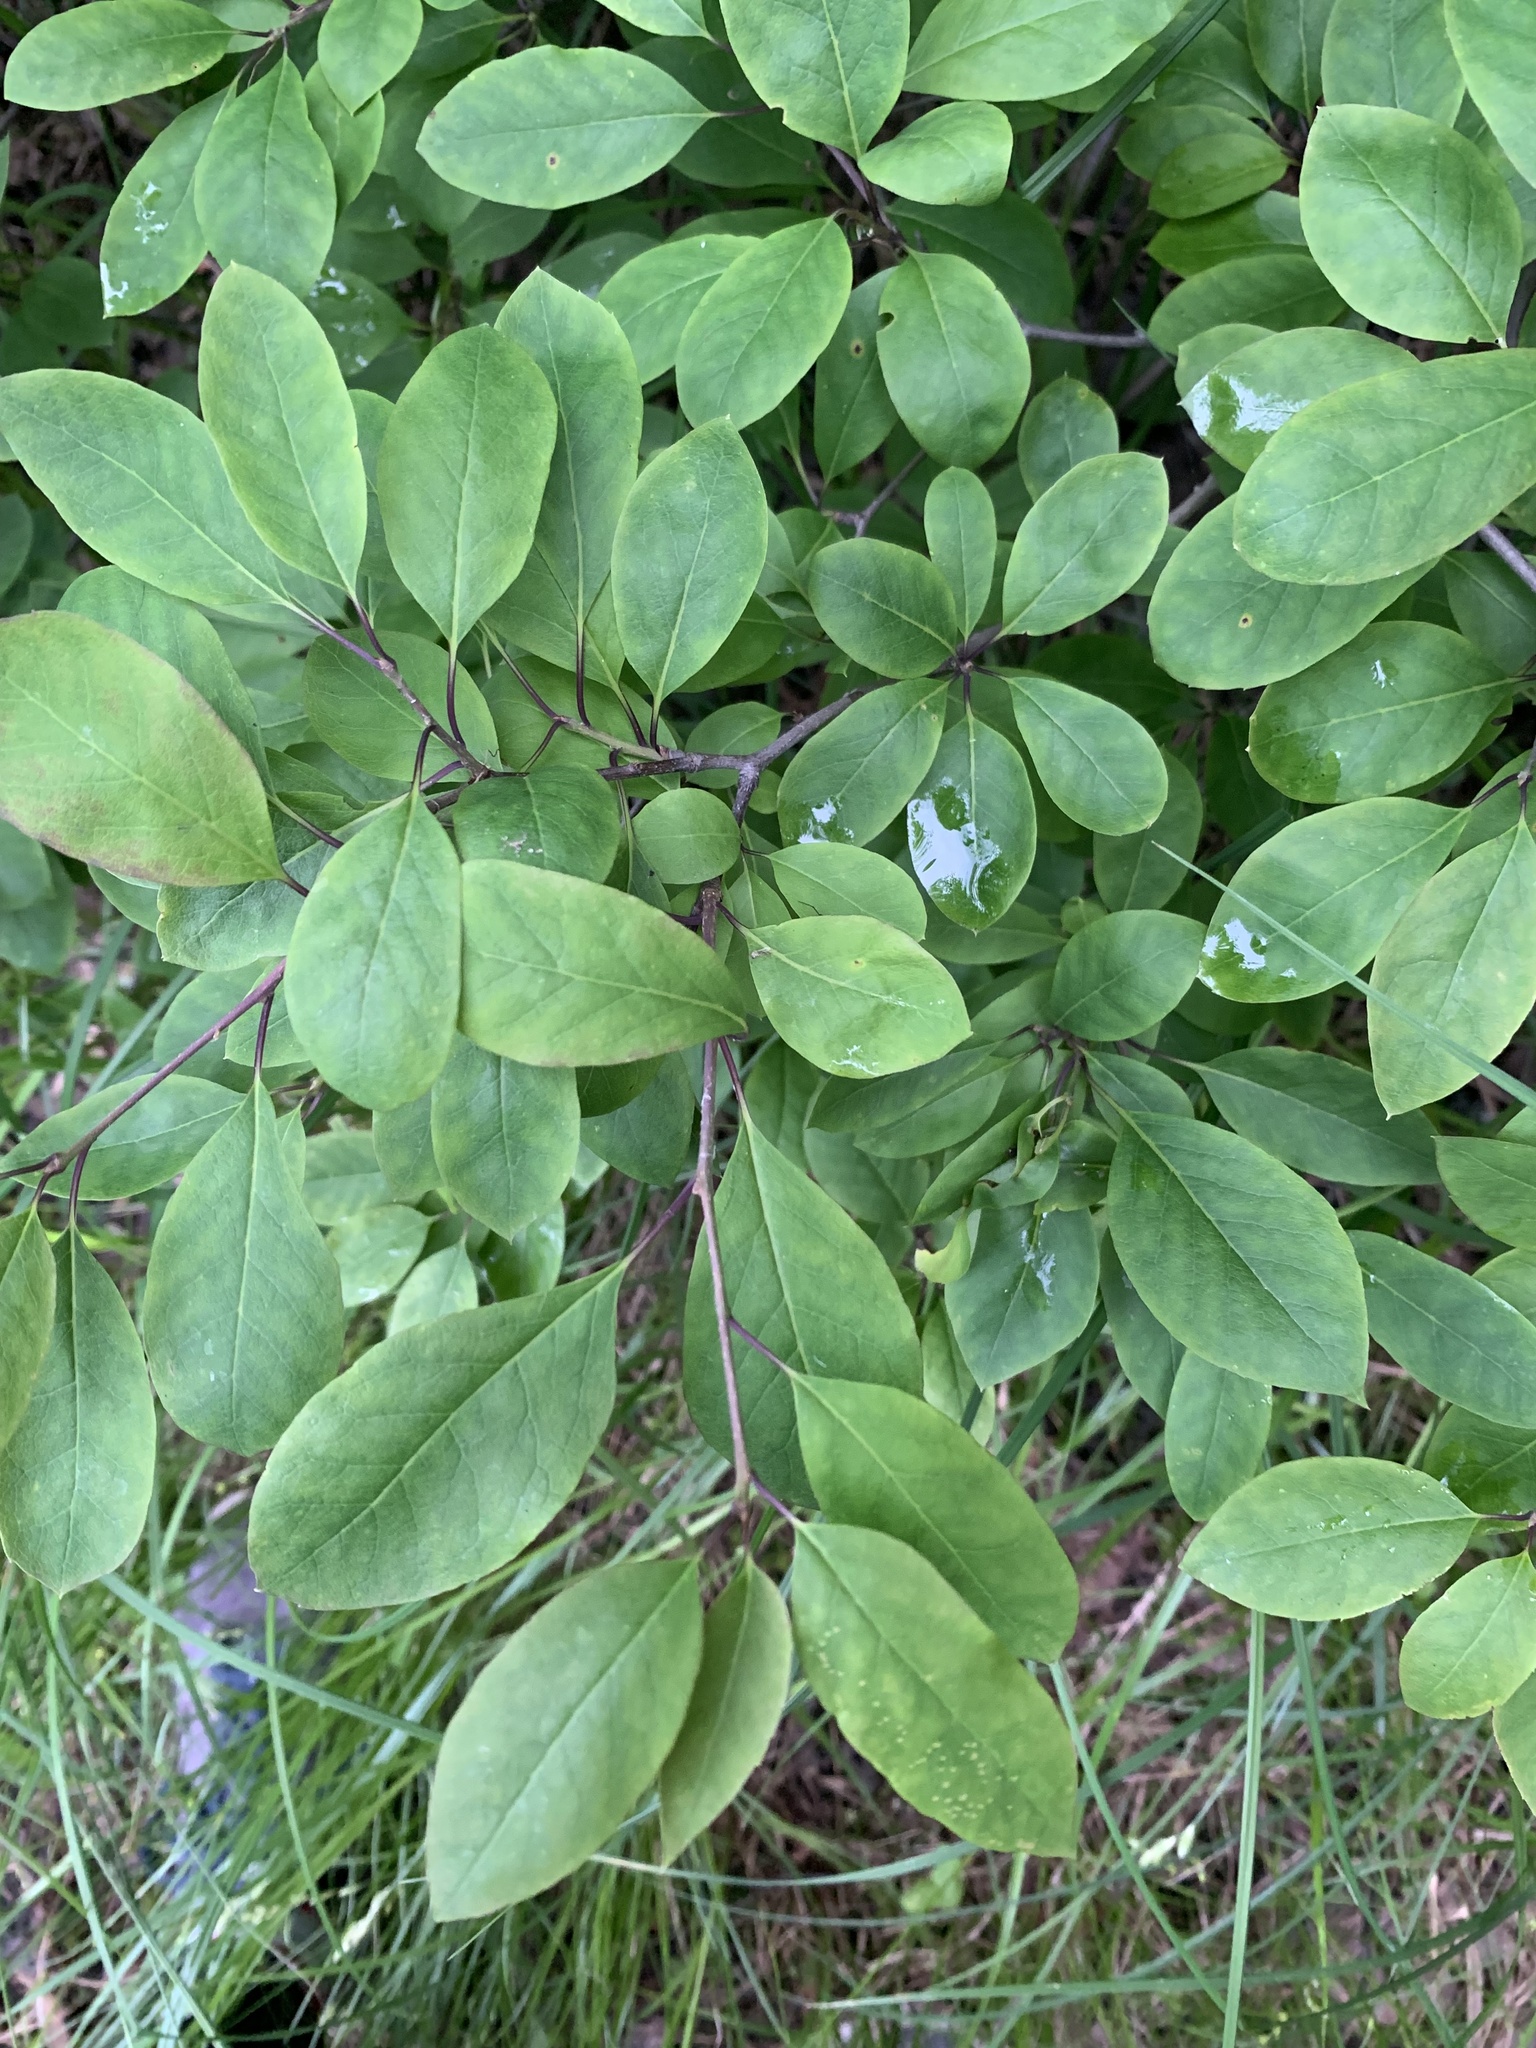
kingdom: Plantae
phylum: Tracheophyta
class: Magnoliopsida
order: Aquifoliales
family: Aquifoliaceae
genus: Ilex
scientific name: Ilex mucronata
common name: Catberry
